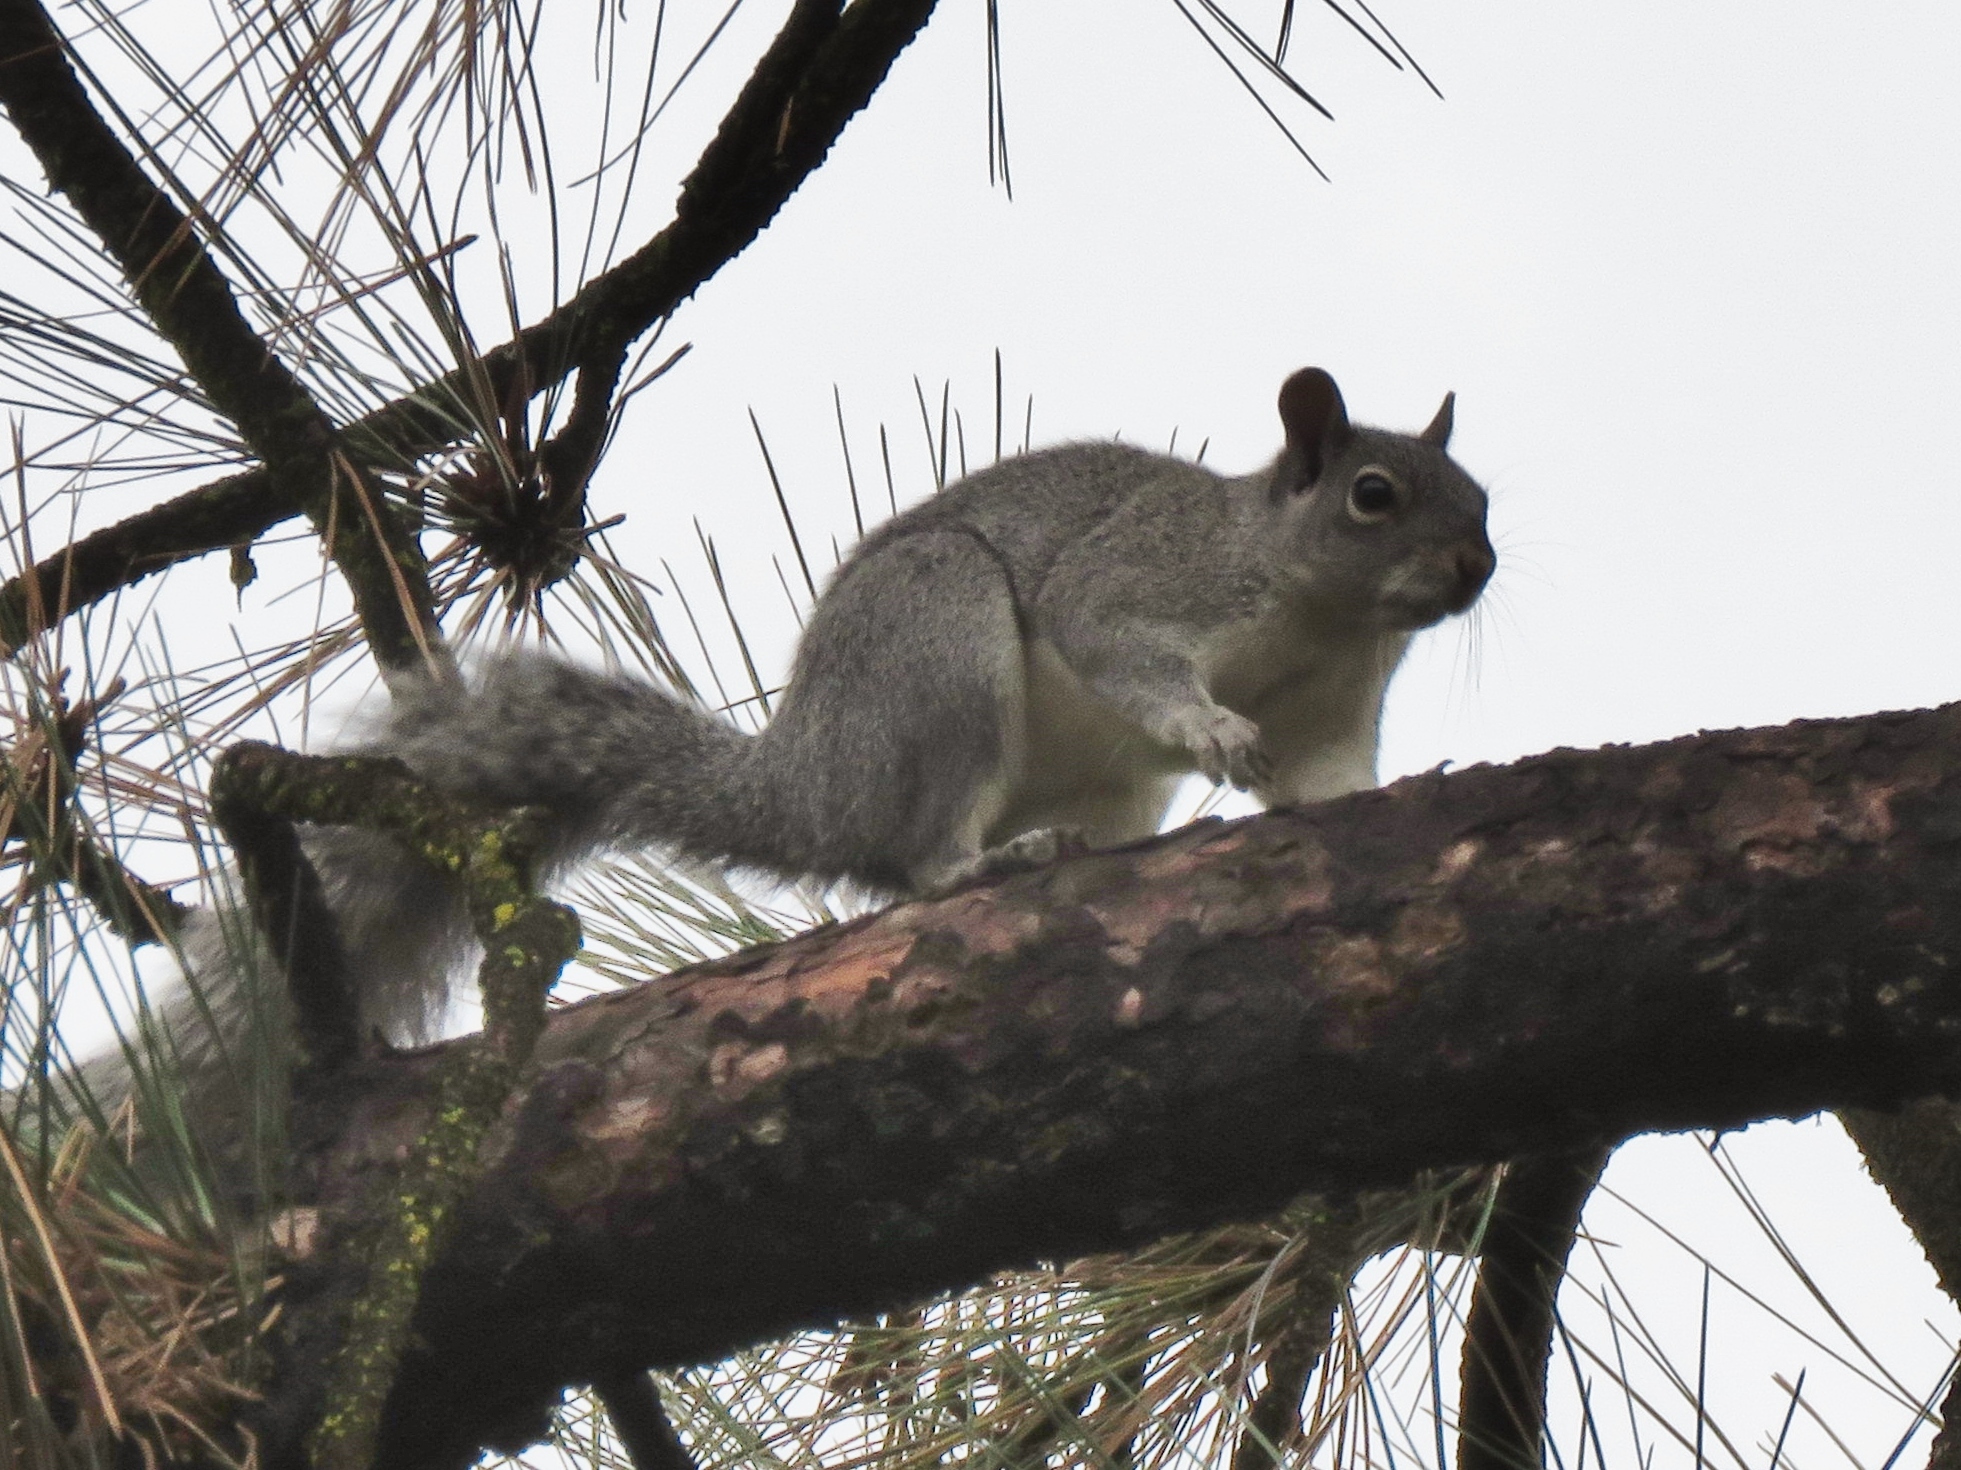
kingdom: Animalia
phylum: Chordata
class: Mammalia
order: Rodentia
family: Sciuridae
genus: Sciurus
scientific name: Sciurus griseus
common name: Western gray squirrel
